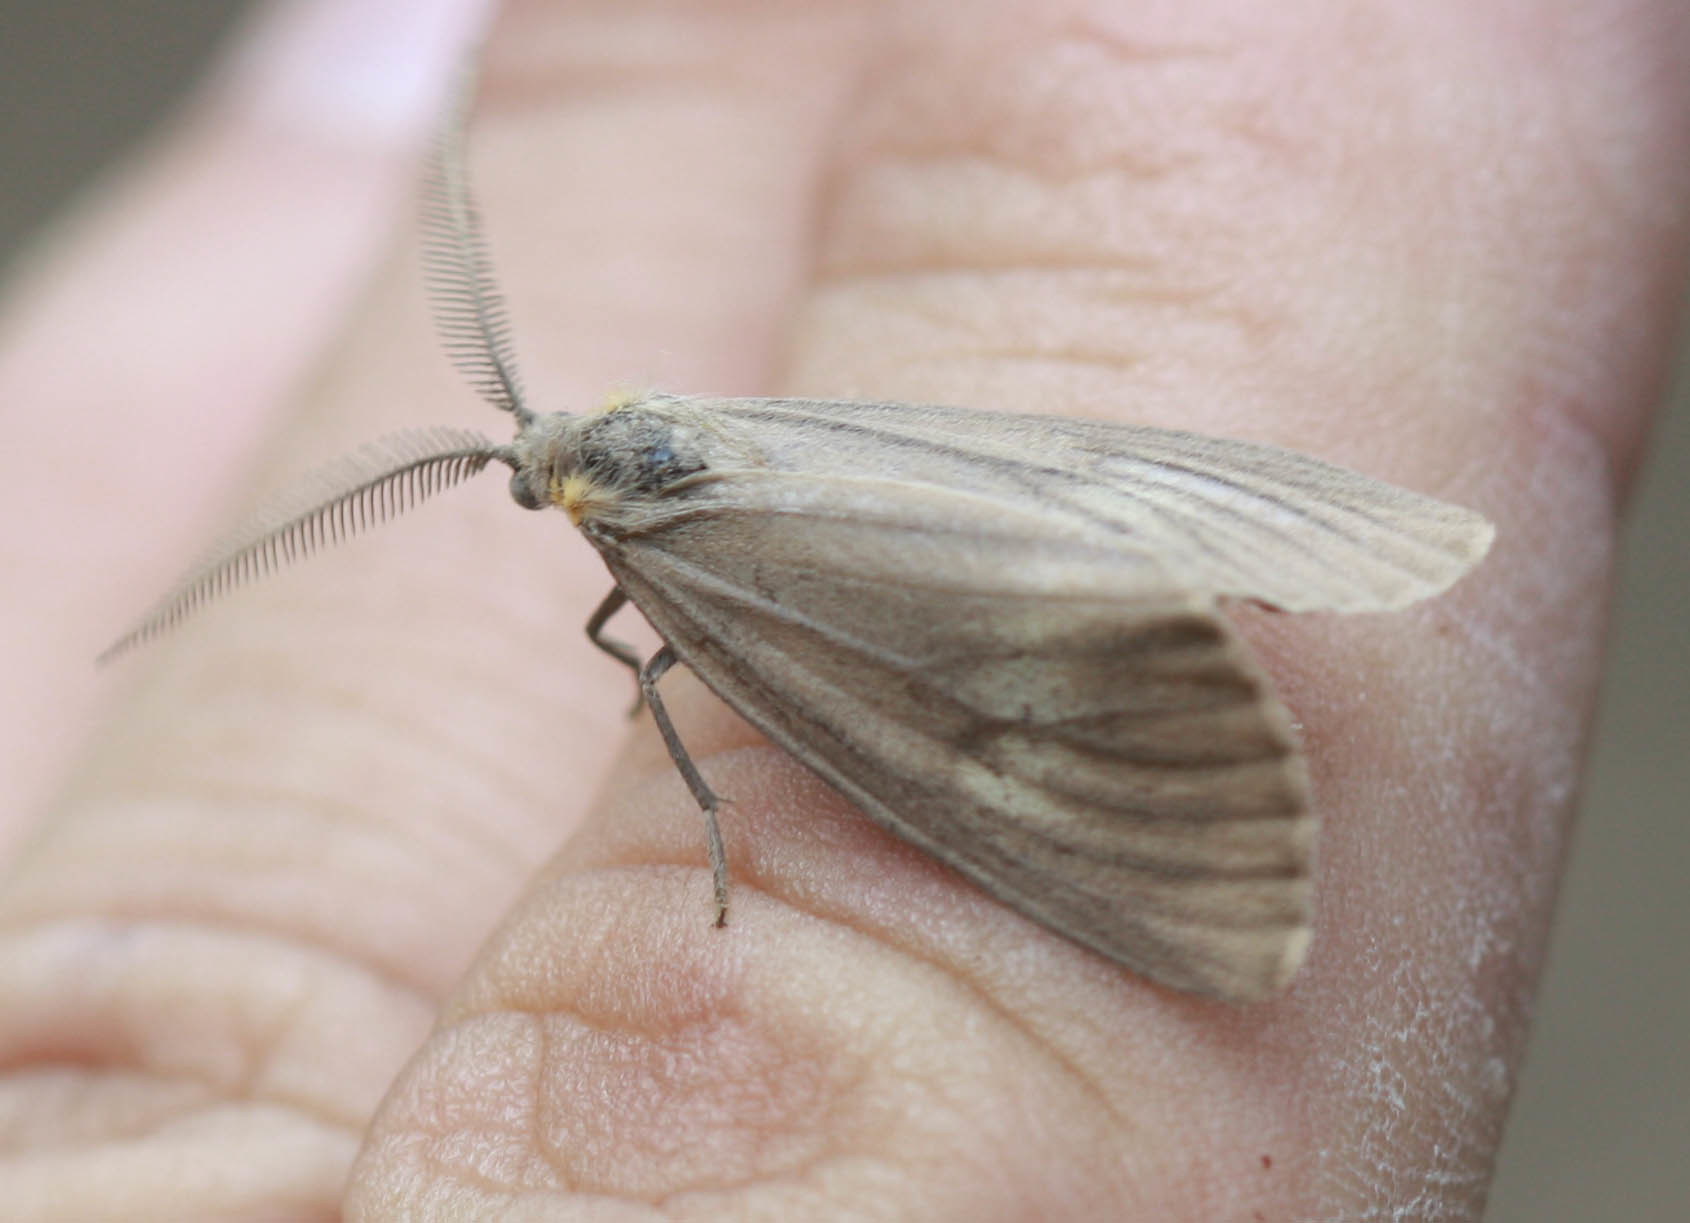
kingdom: Animalia
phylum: Arthropoda
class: Insecta
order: Lepidoptera
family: Notodontidae
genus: Phryganidia
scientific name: Phryganidia californica
